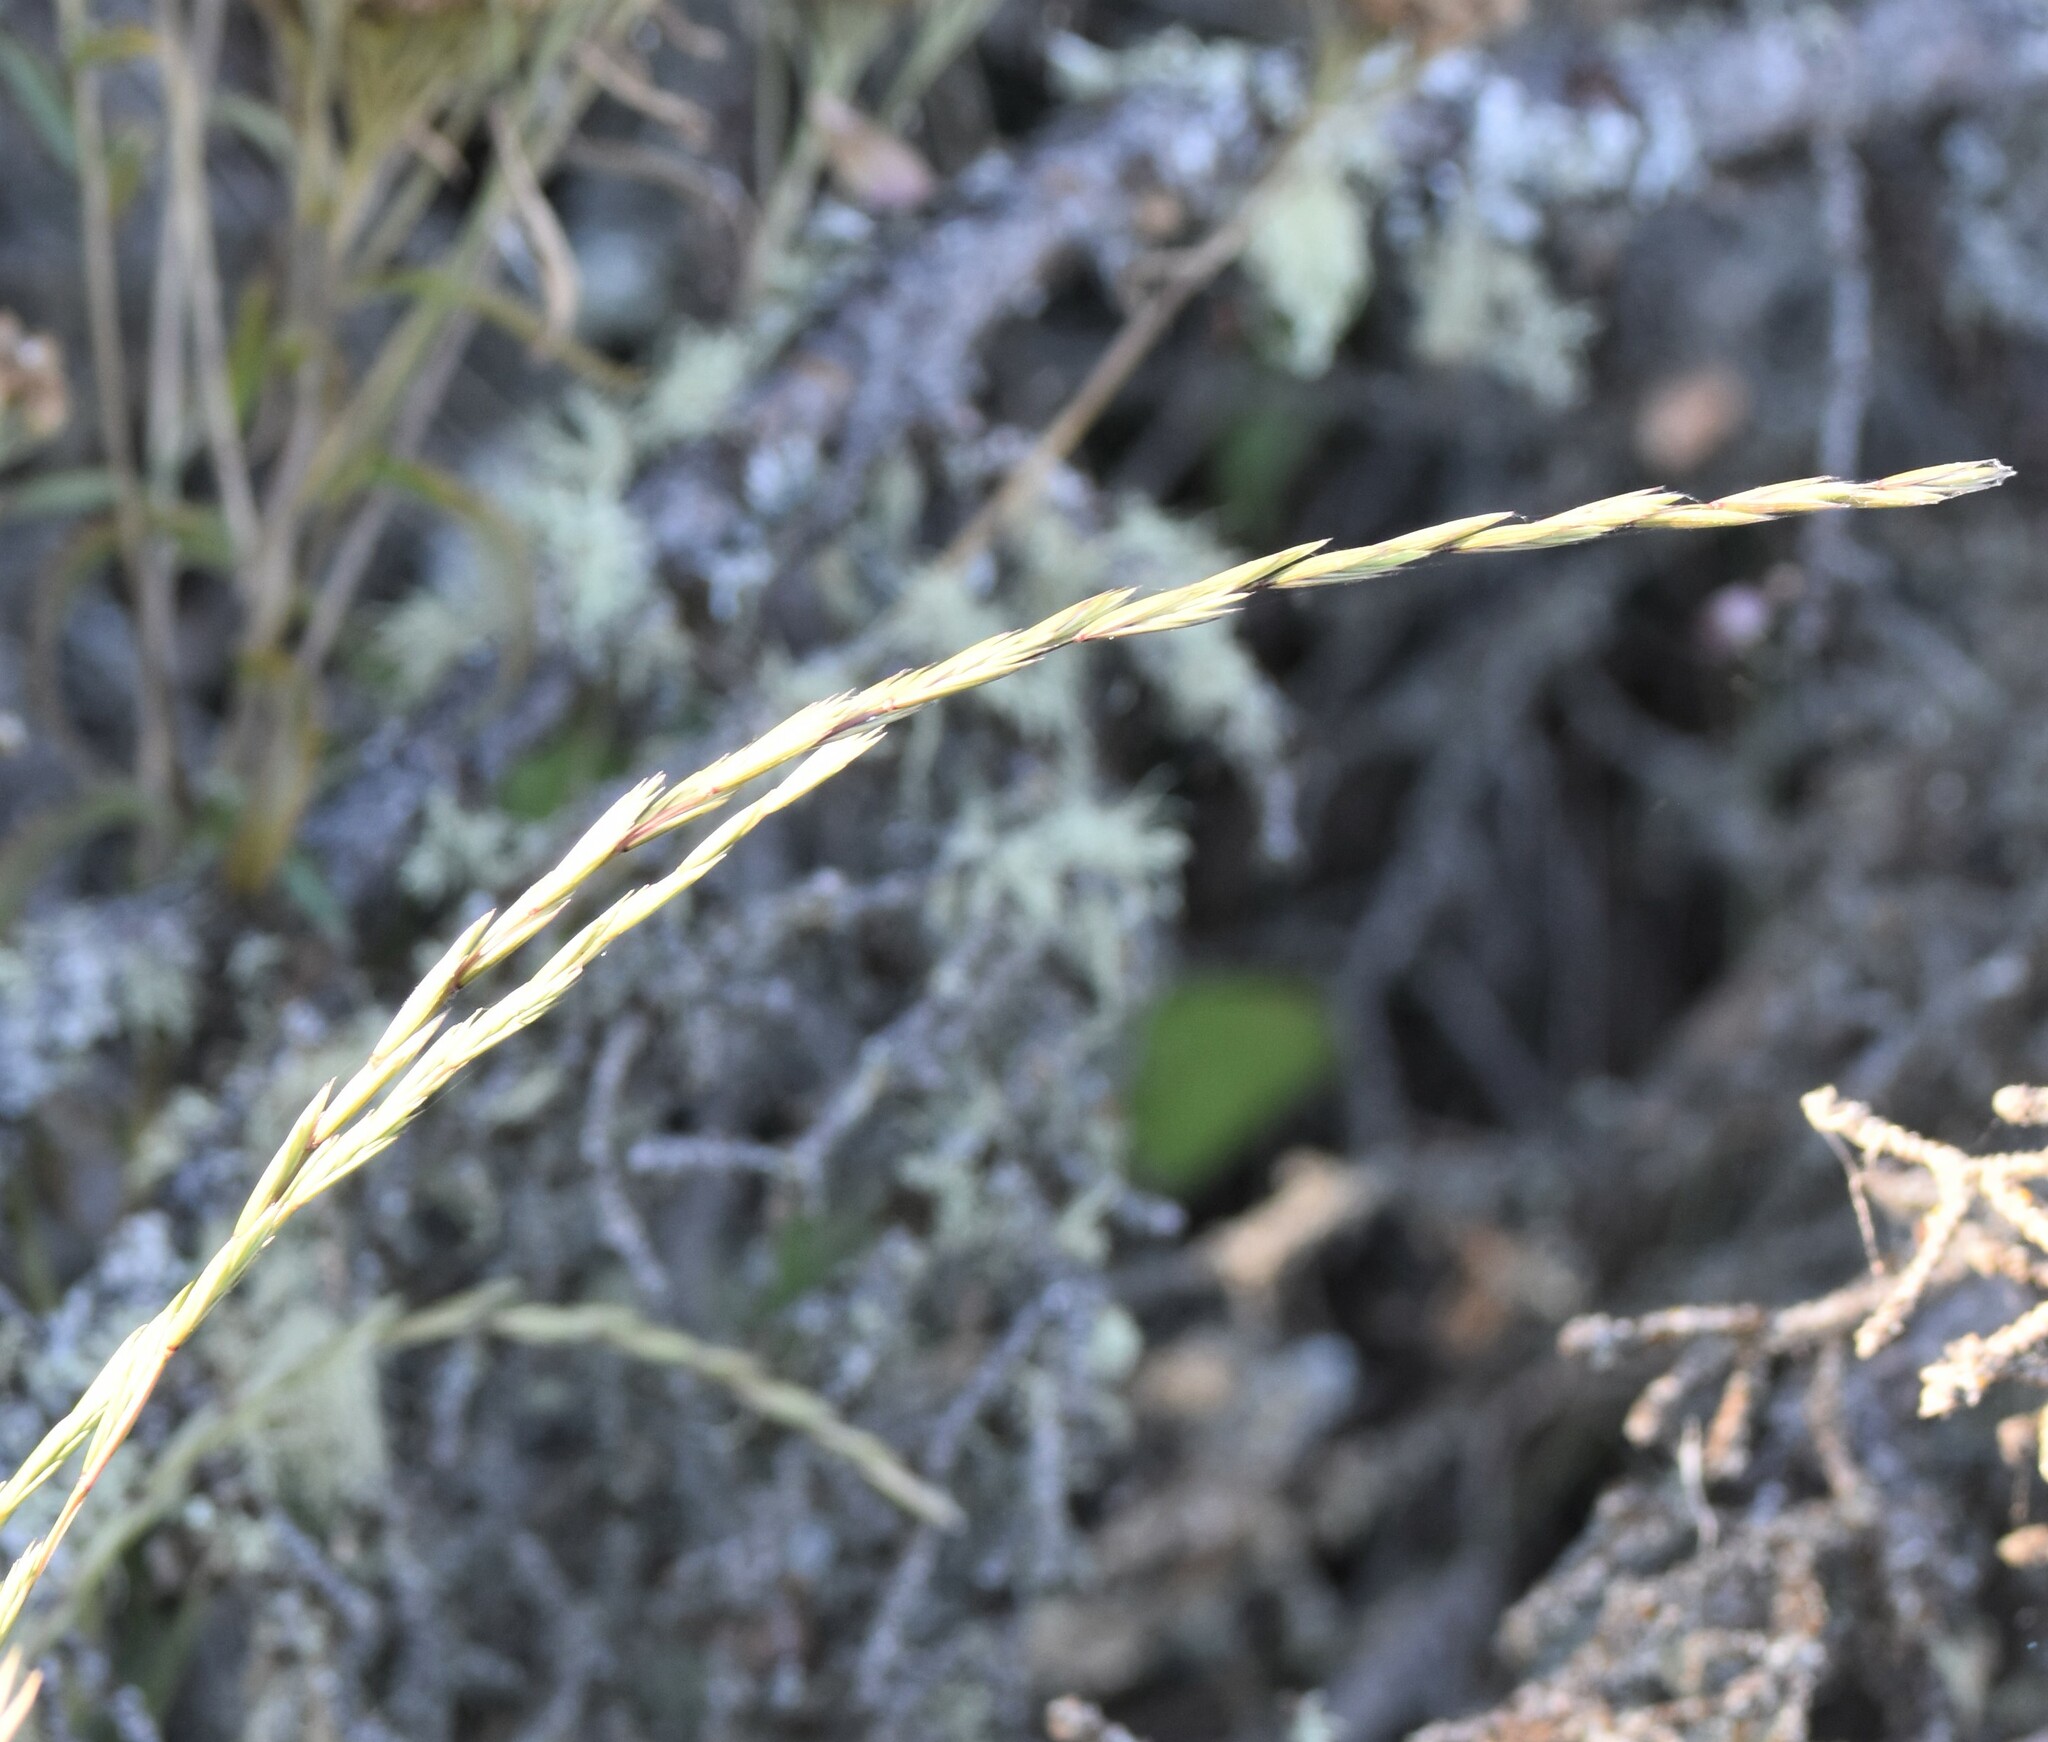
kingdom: Plantae
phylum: Tracheophyta
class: Liliopsida
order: Poales
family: Poaceae
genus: Elymus
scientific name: Elymus violaceus
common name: Arctic wheatgrass
